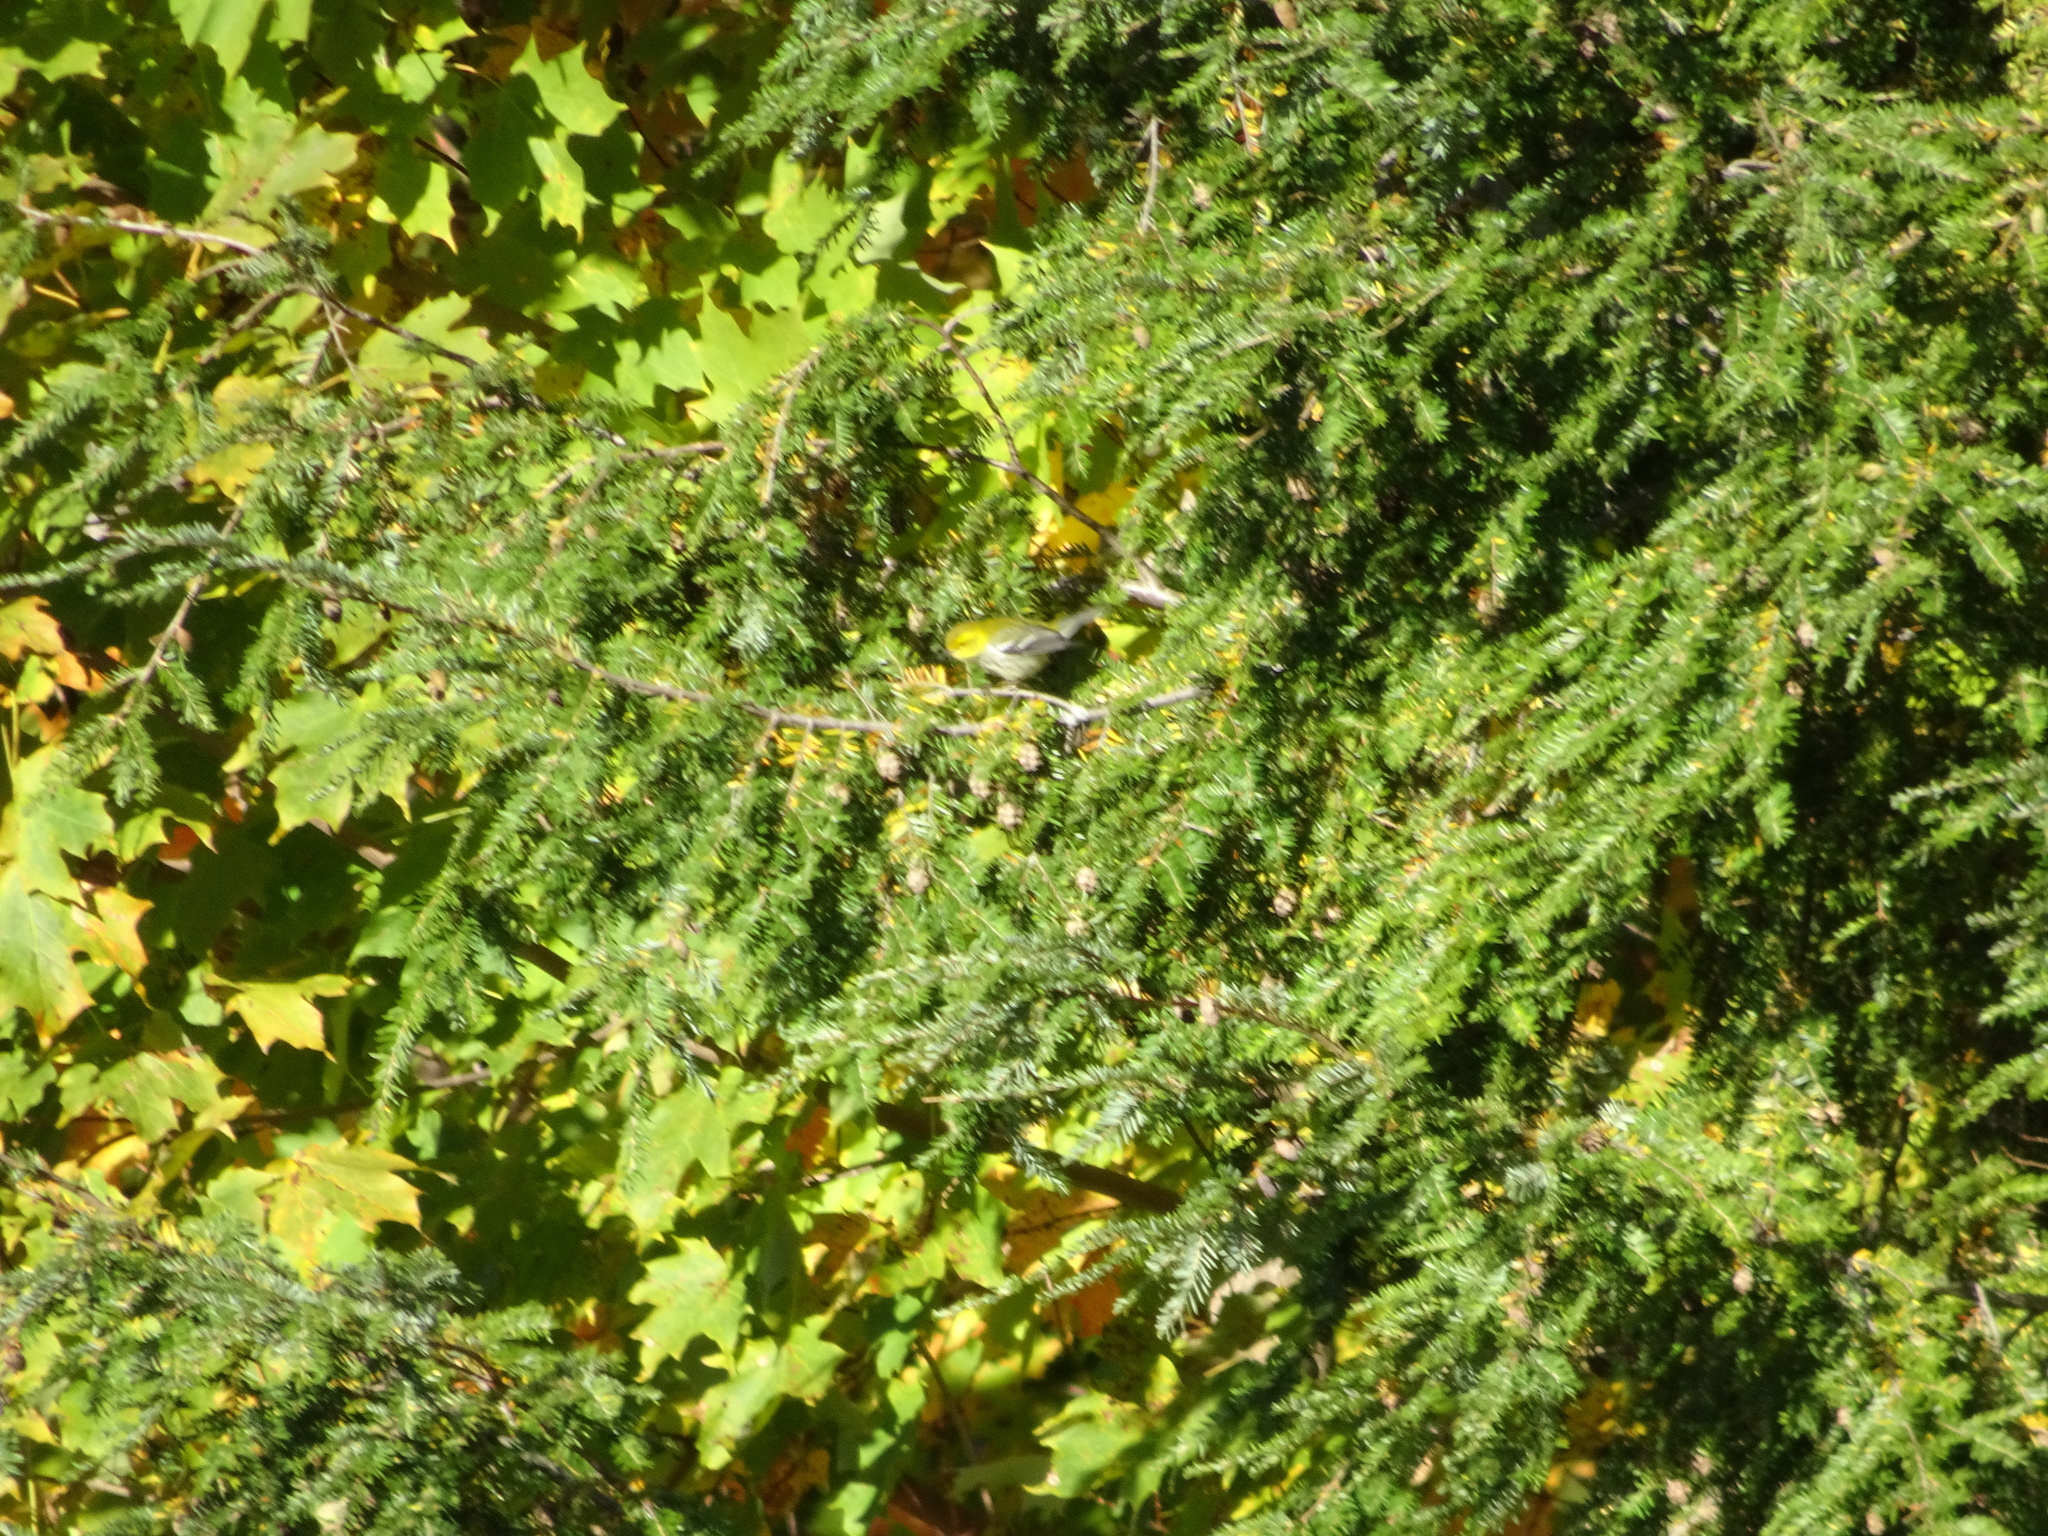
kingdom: Animalia
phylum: Chordata
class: Aves
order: Passeriformes
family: Parulidae
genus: Setophaga
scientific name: Setophaga virens
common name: Black-throated green warbler
